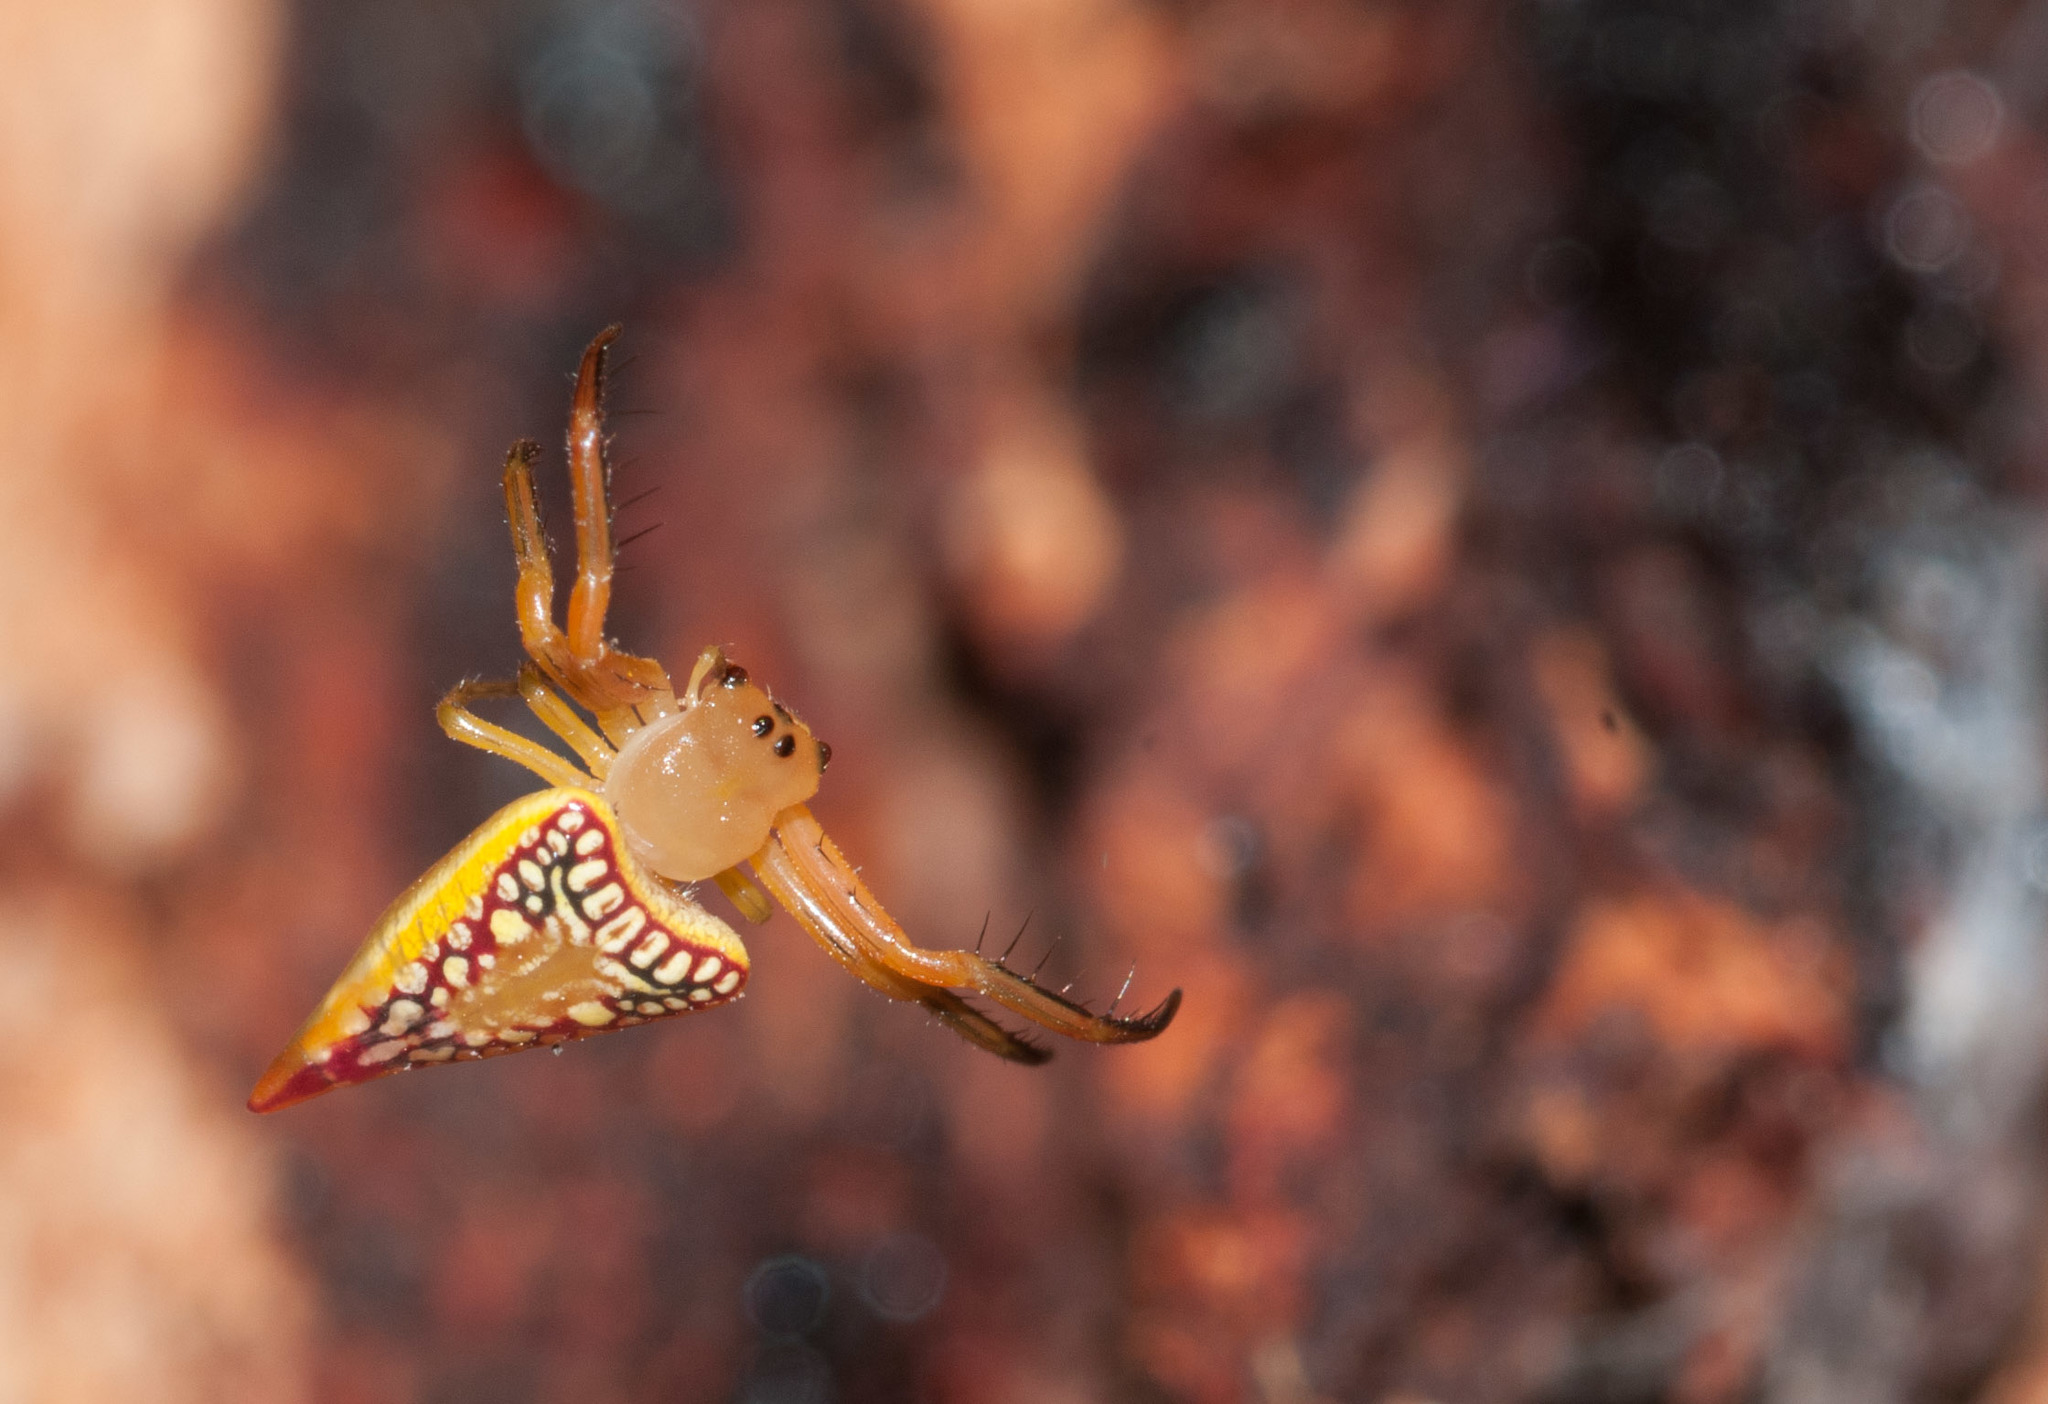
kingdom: Animalia
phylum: Arthropoda
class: Arachnida
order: Araneae
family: Arkyidae
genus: Arkys
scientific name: Arkys walckenaeri
